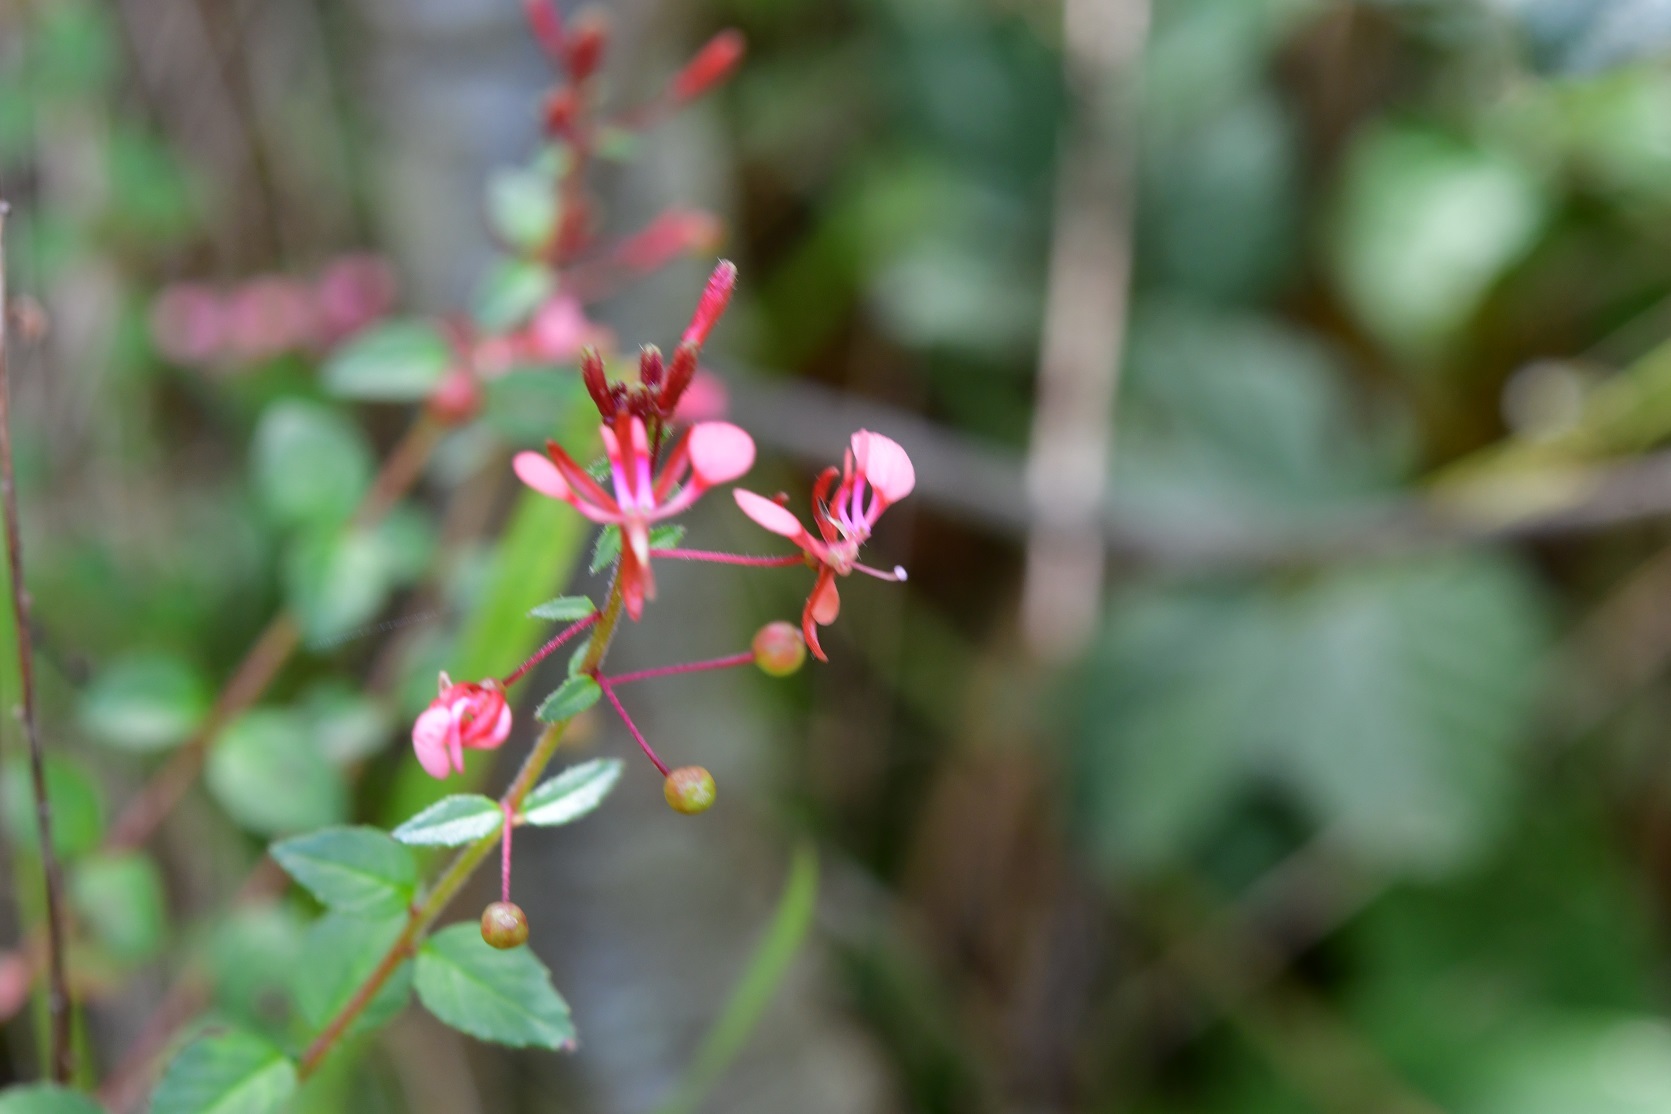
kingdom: Plantae
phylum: Tracheophyta
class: Magnoliopsida
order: Myrtales
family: Onagraceae
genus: Lopezia
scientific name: Lopezia racemosa
